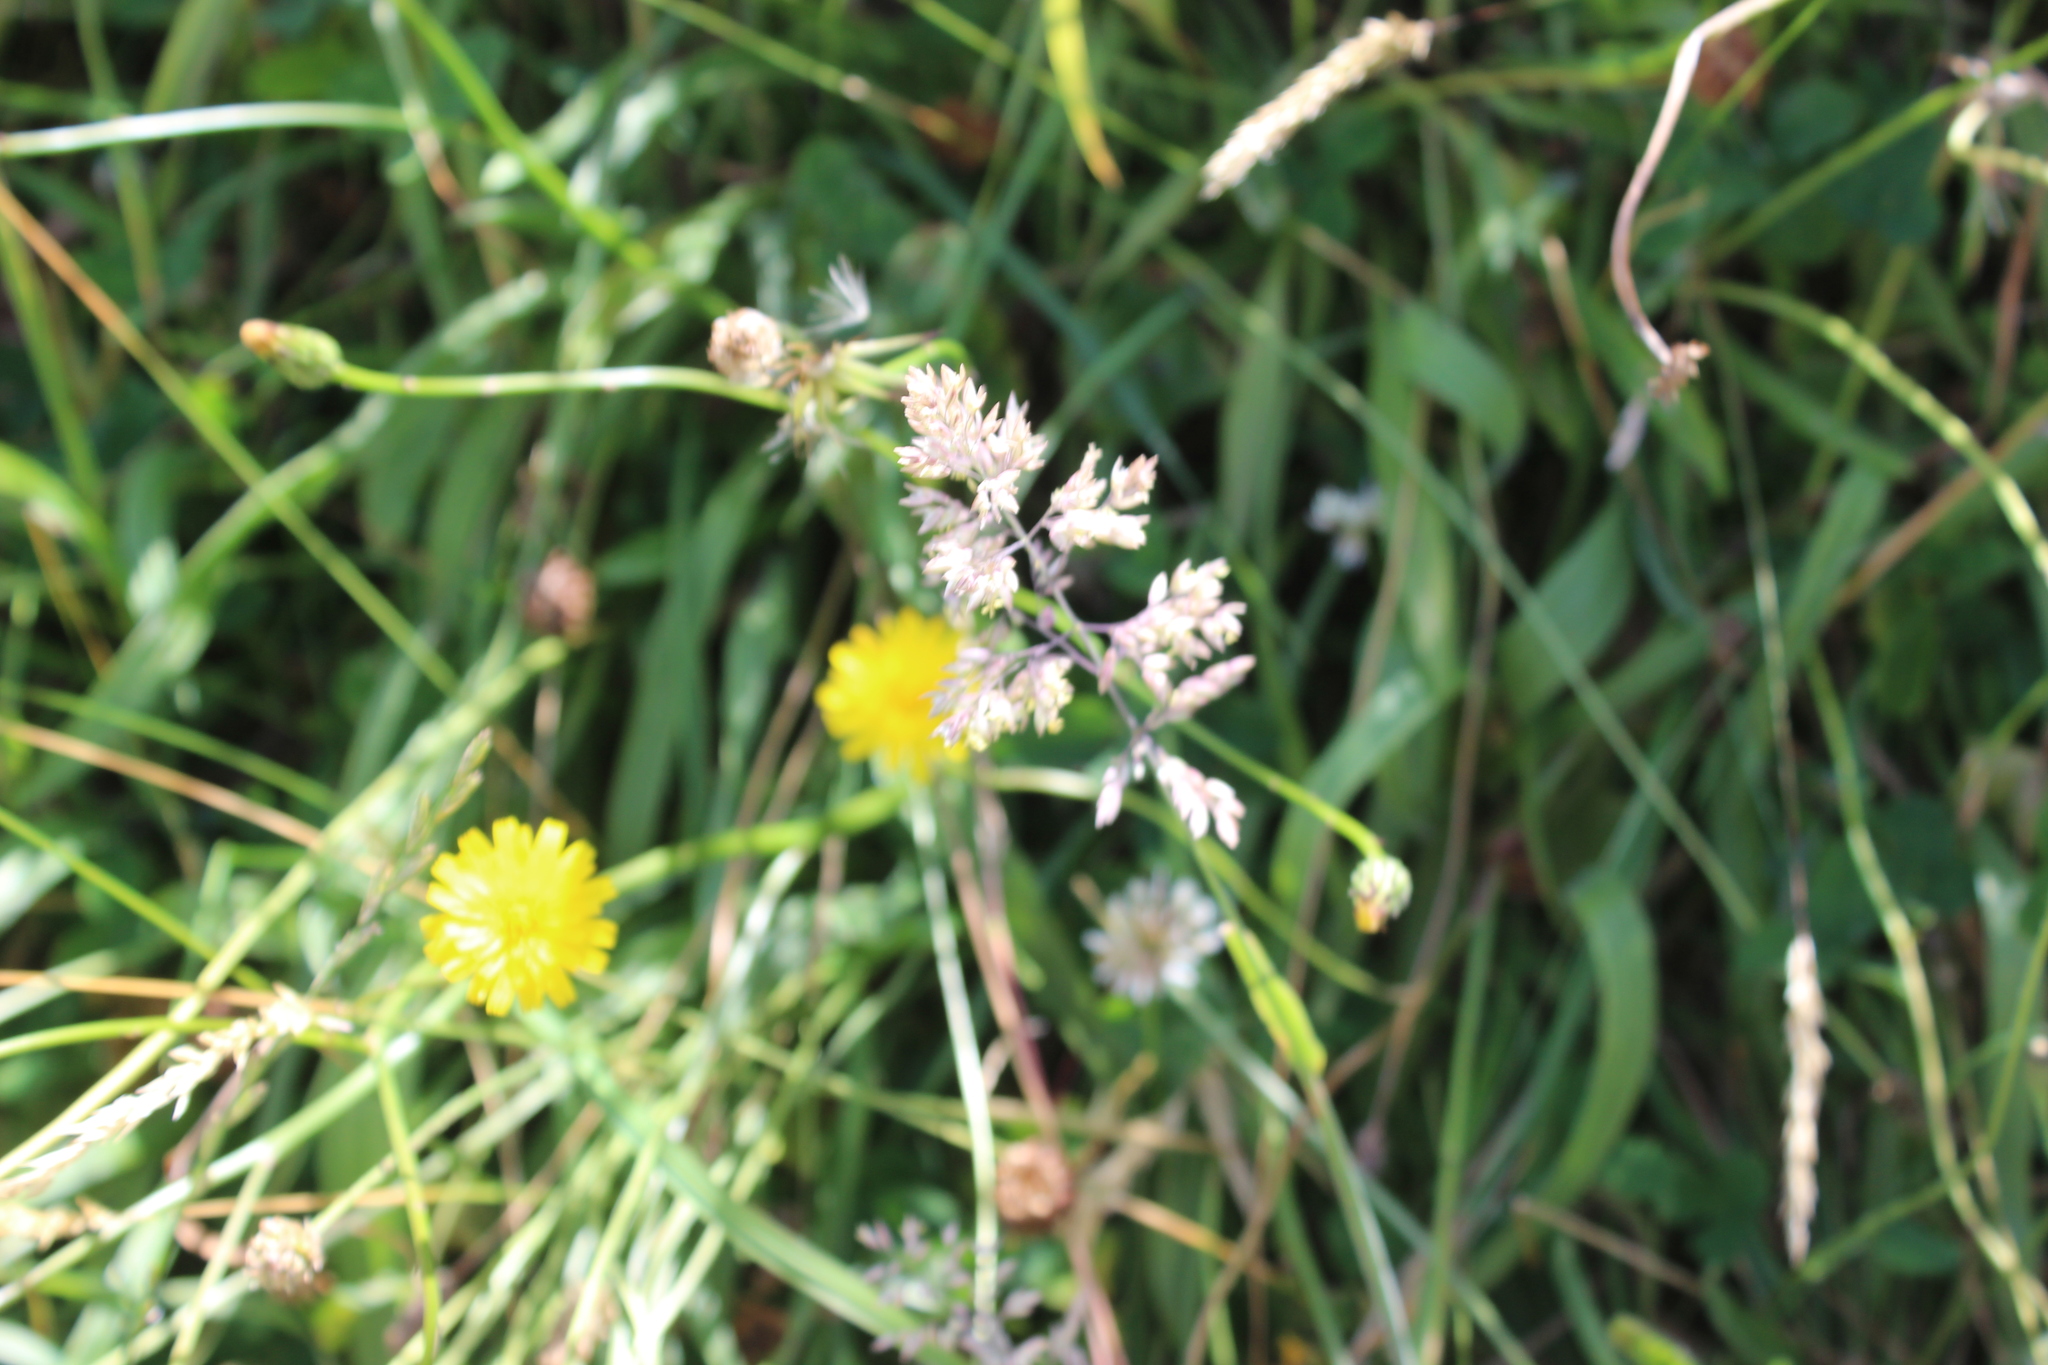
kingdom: Plantae
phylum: Tracheophyta
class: Liliopsida
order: Poales
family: Poaceae
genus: Holcus
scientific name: Holcus lanatus
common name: Yorkshire-fog
